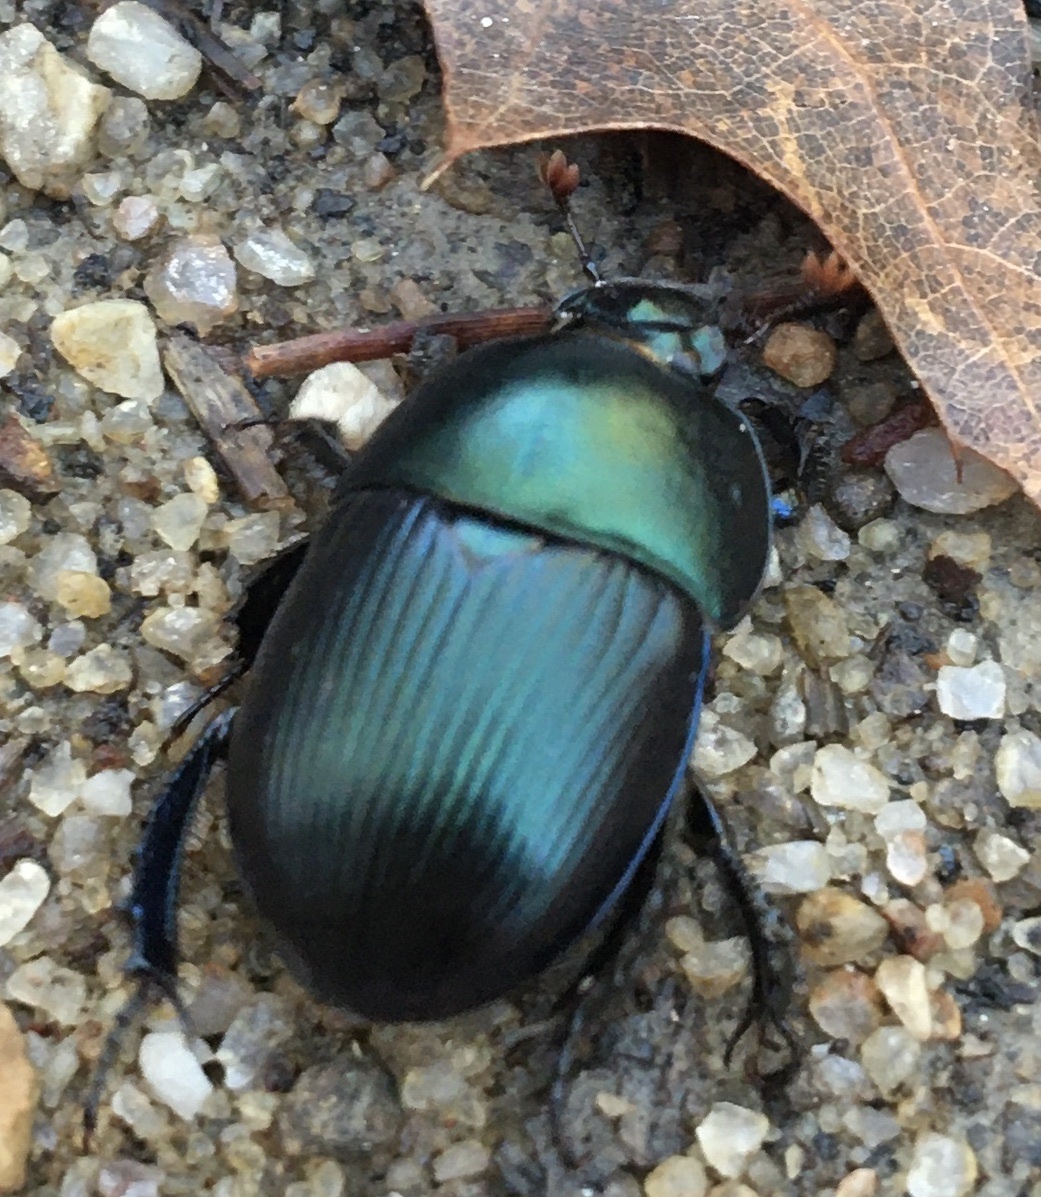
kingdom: Animalia
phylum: Arthropoda
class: Insecta
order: Coleoptera
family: Geotrupidae
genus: Geotrupes
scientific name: Geotrupes splendidus
